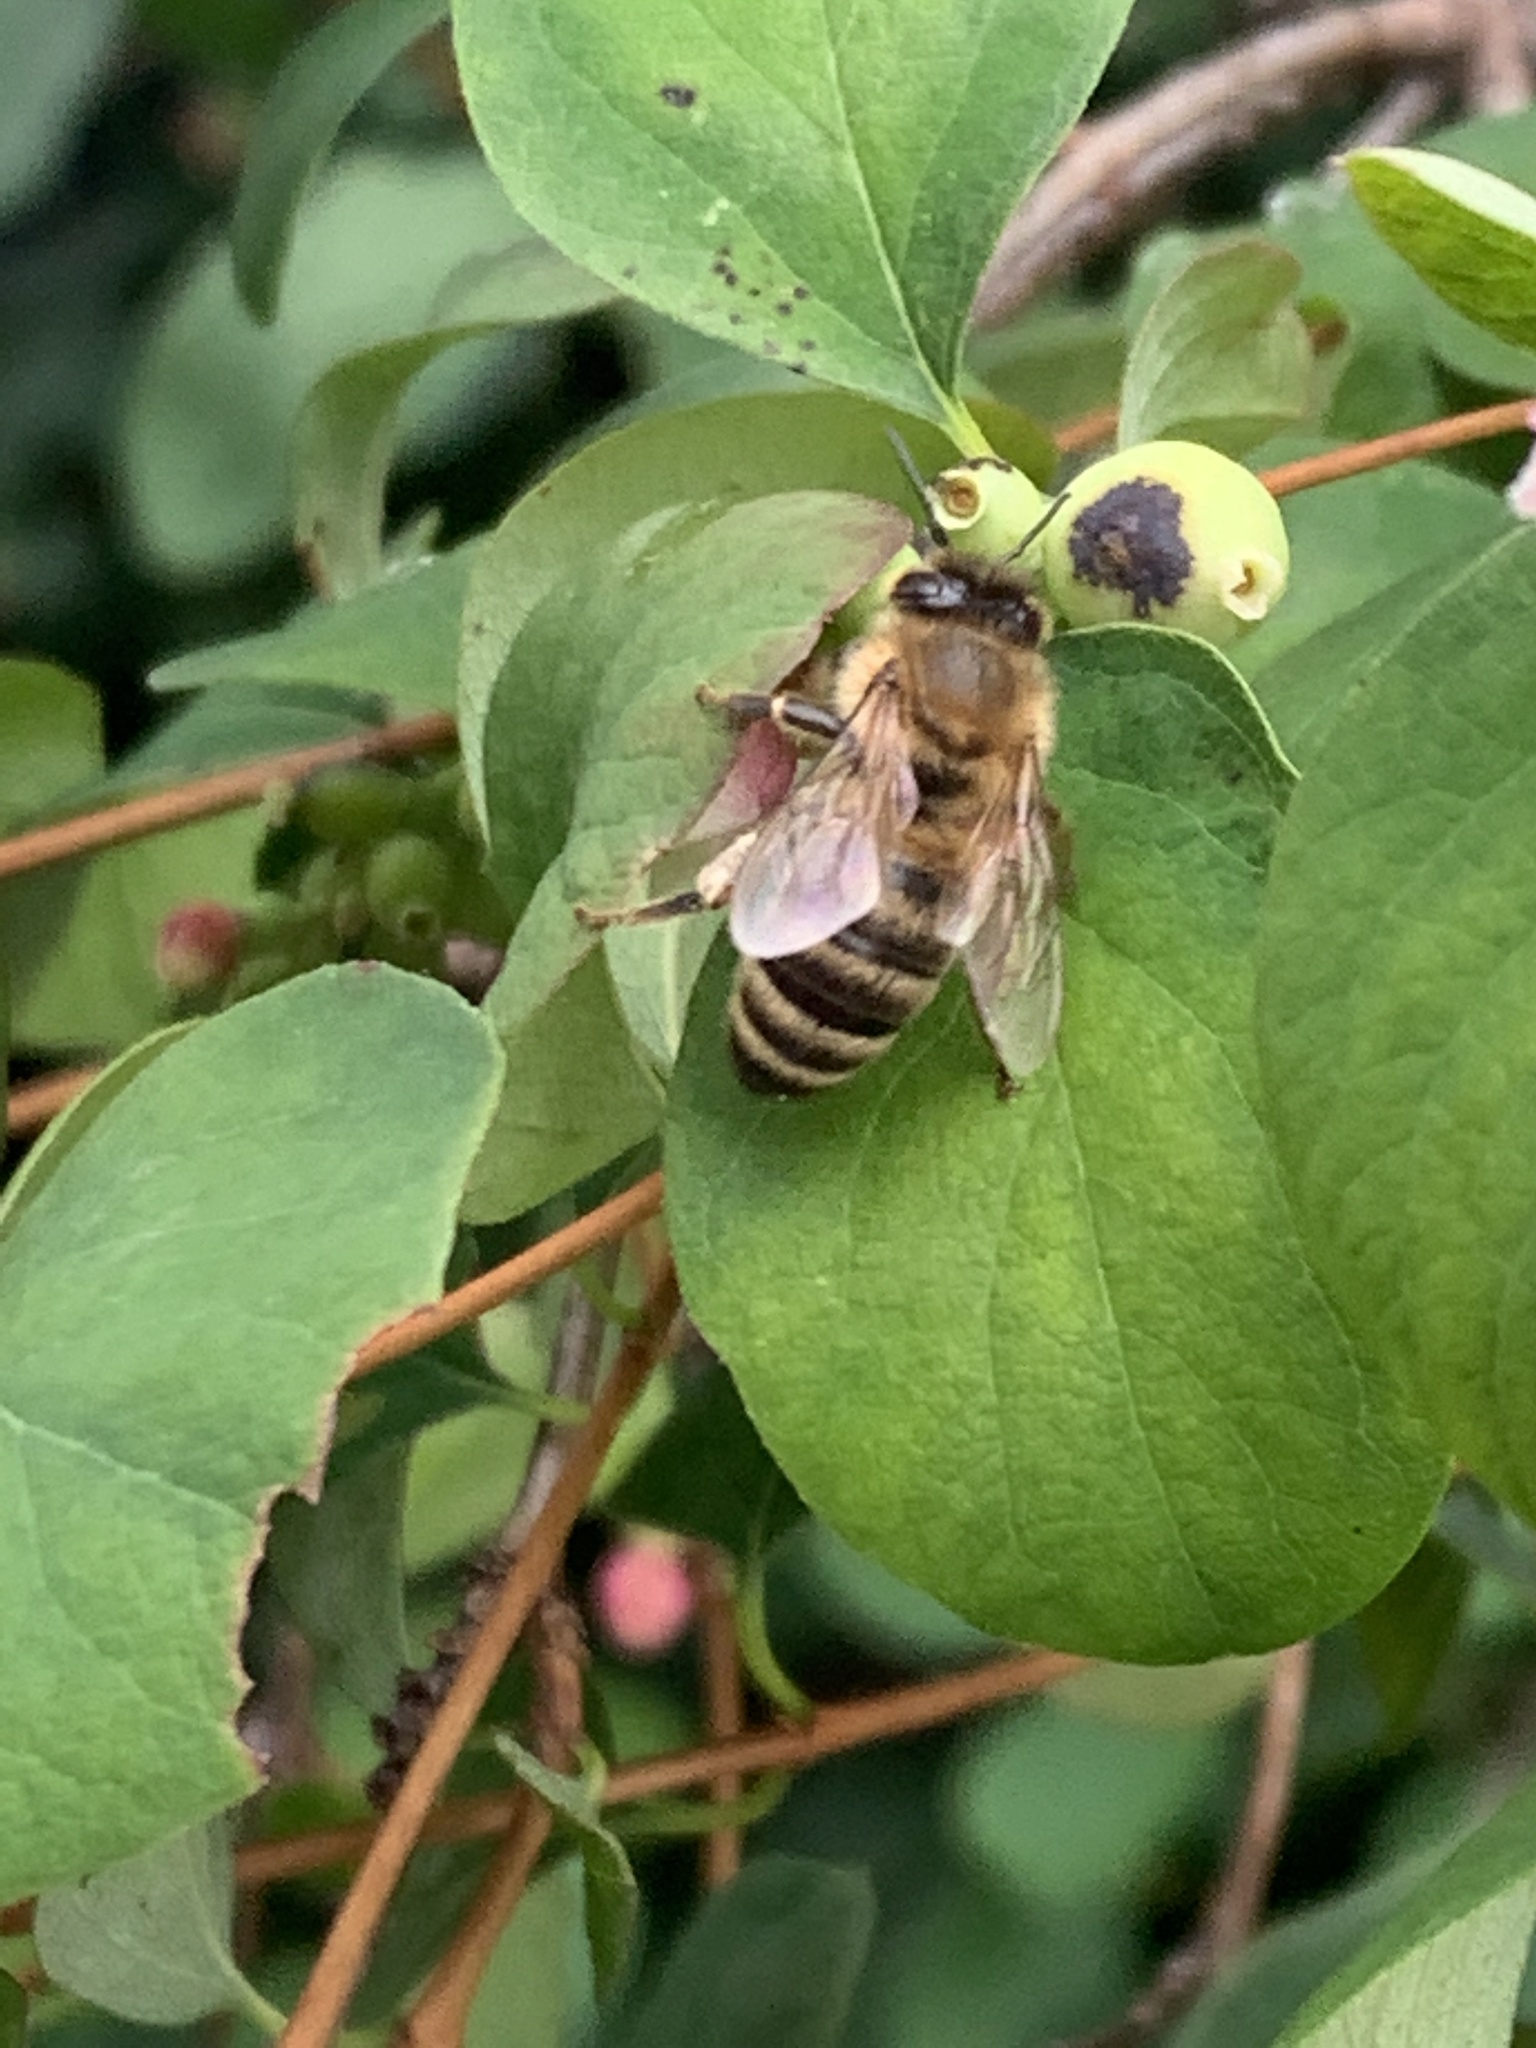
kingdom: Animalia
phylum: Arthropoda
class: Insecta
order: Hymenoptera
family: Apidae
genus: Apis
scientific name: Apis mellifera
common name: Honey bee
